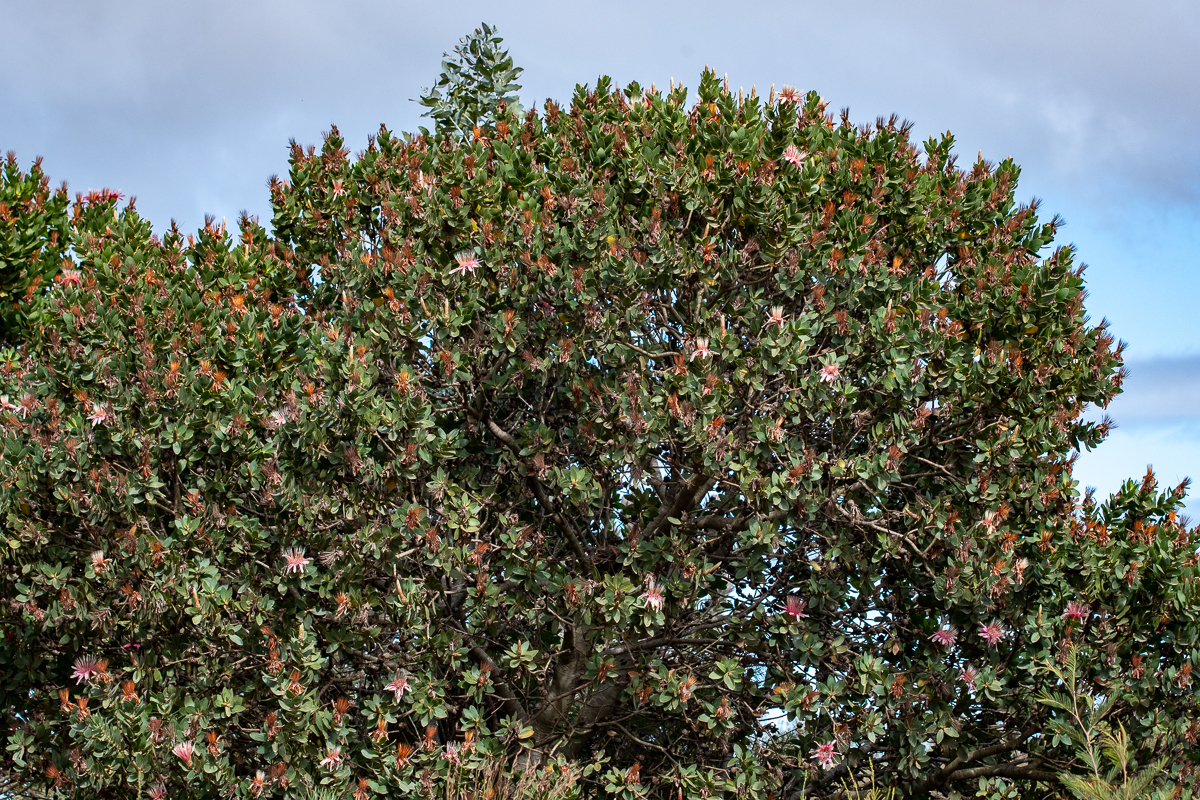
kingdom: Plantae
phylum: Tracheophyta
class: Magnoliopsida
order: Proteales
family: Proteaceae
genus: Protea
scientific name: Protea aurea
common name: Shuttlecock sugarbush
